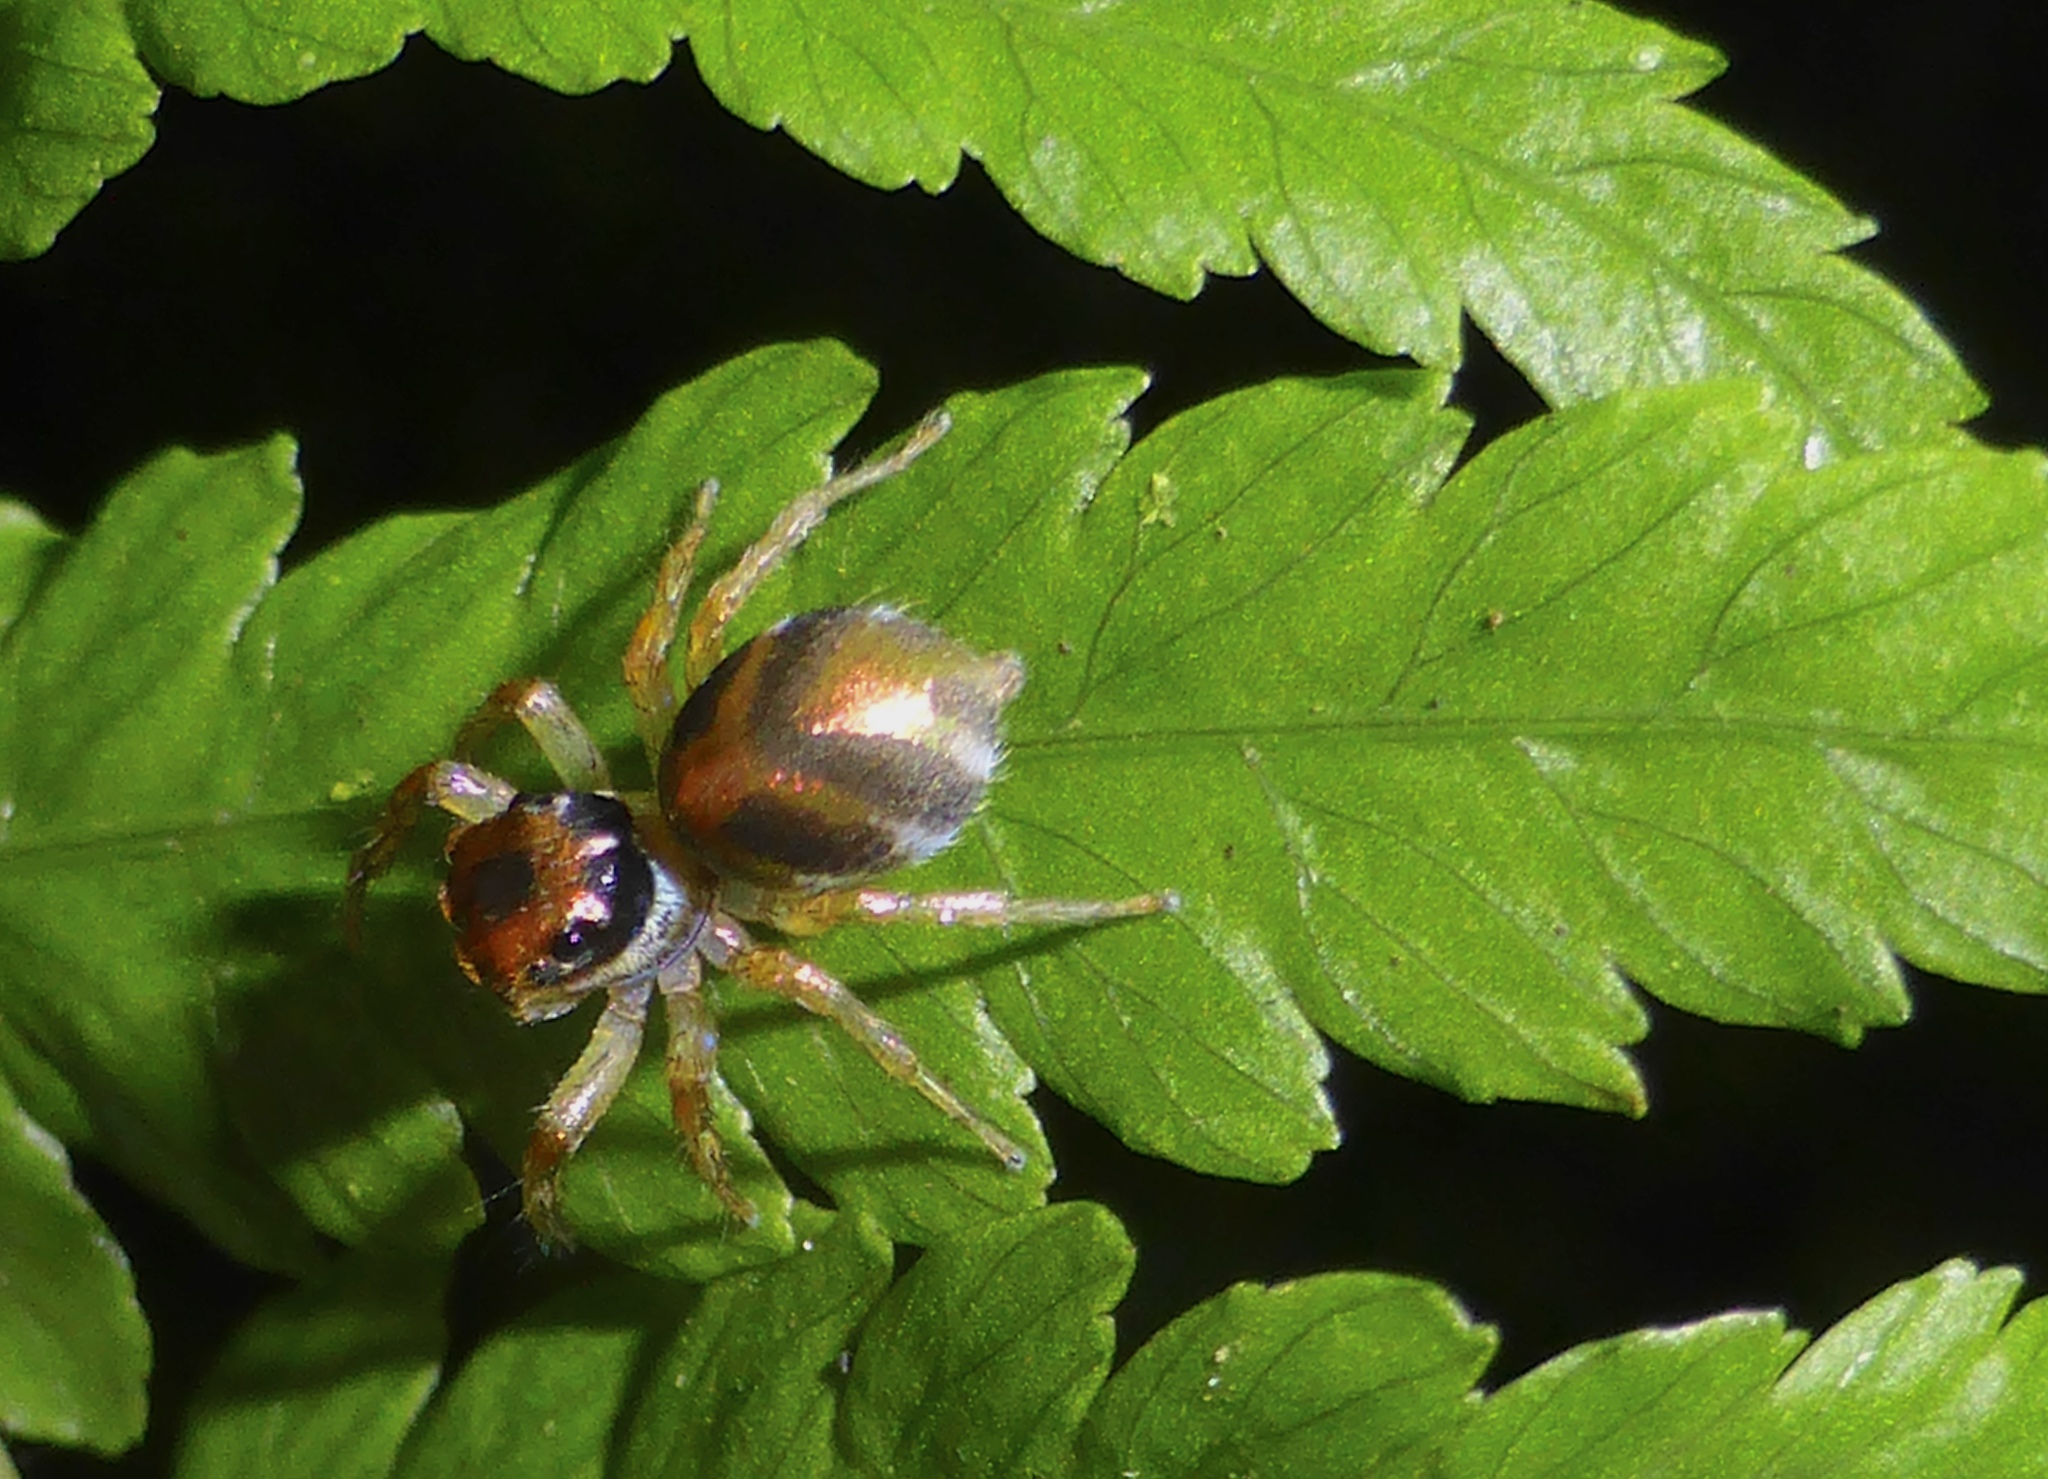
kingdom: Animalia
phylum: Arthropoda
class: Arachnida
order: Araneae
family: Salticidae
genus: Cytaea
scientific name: Cytaea haematica
